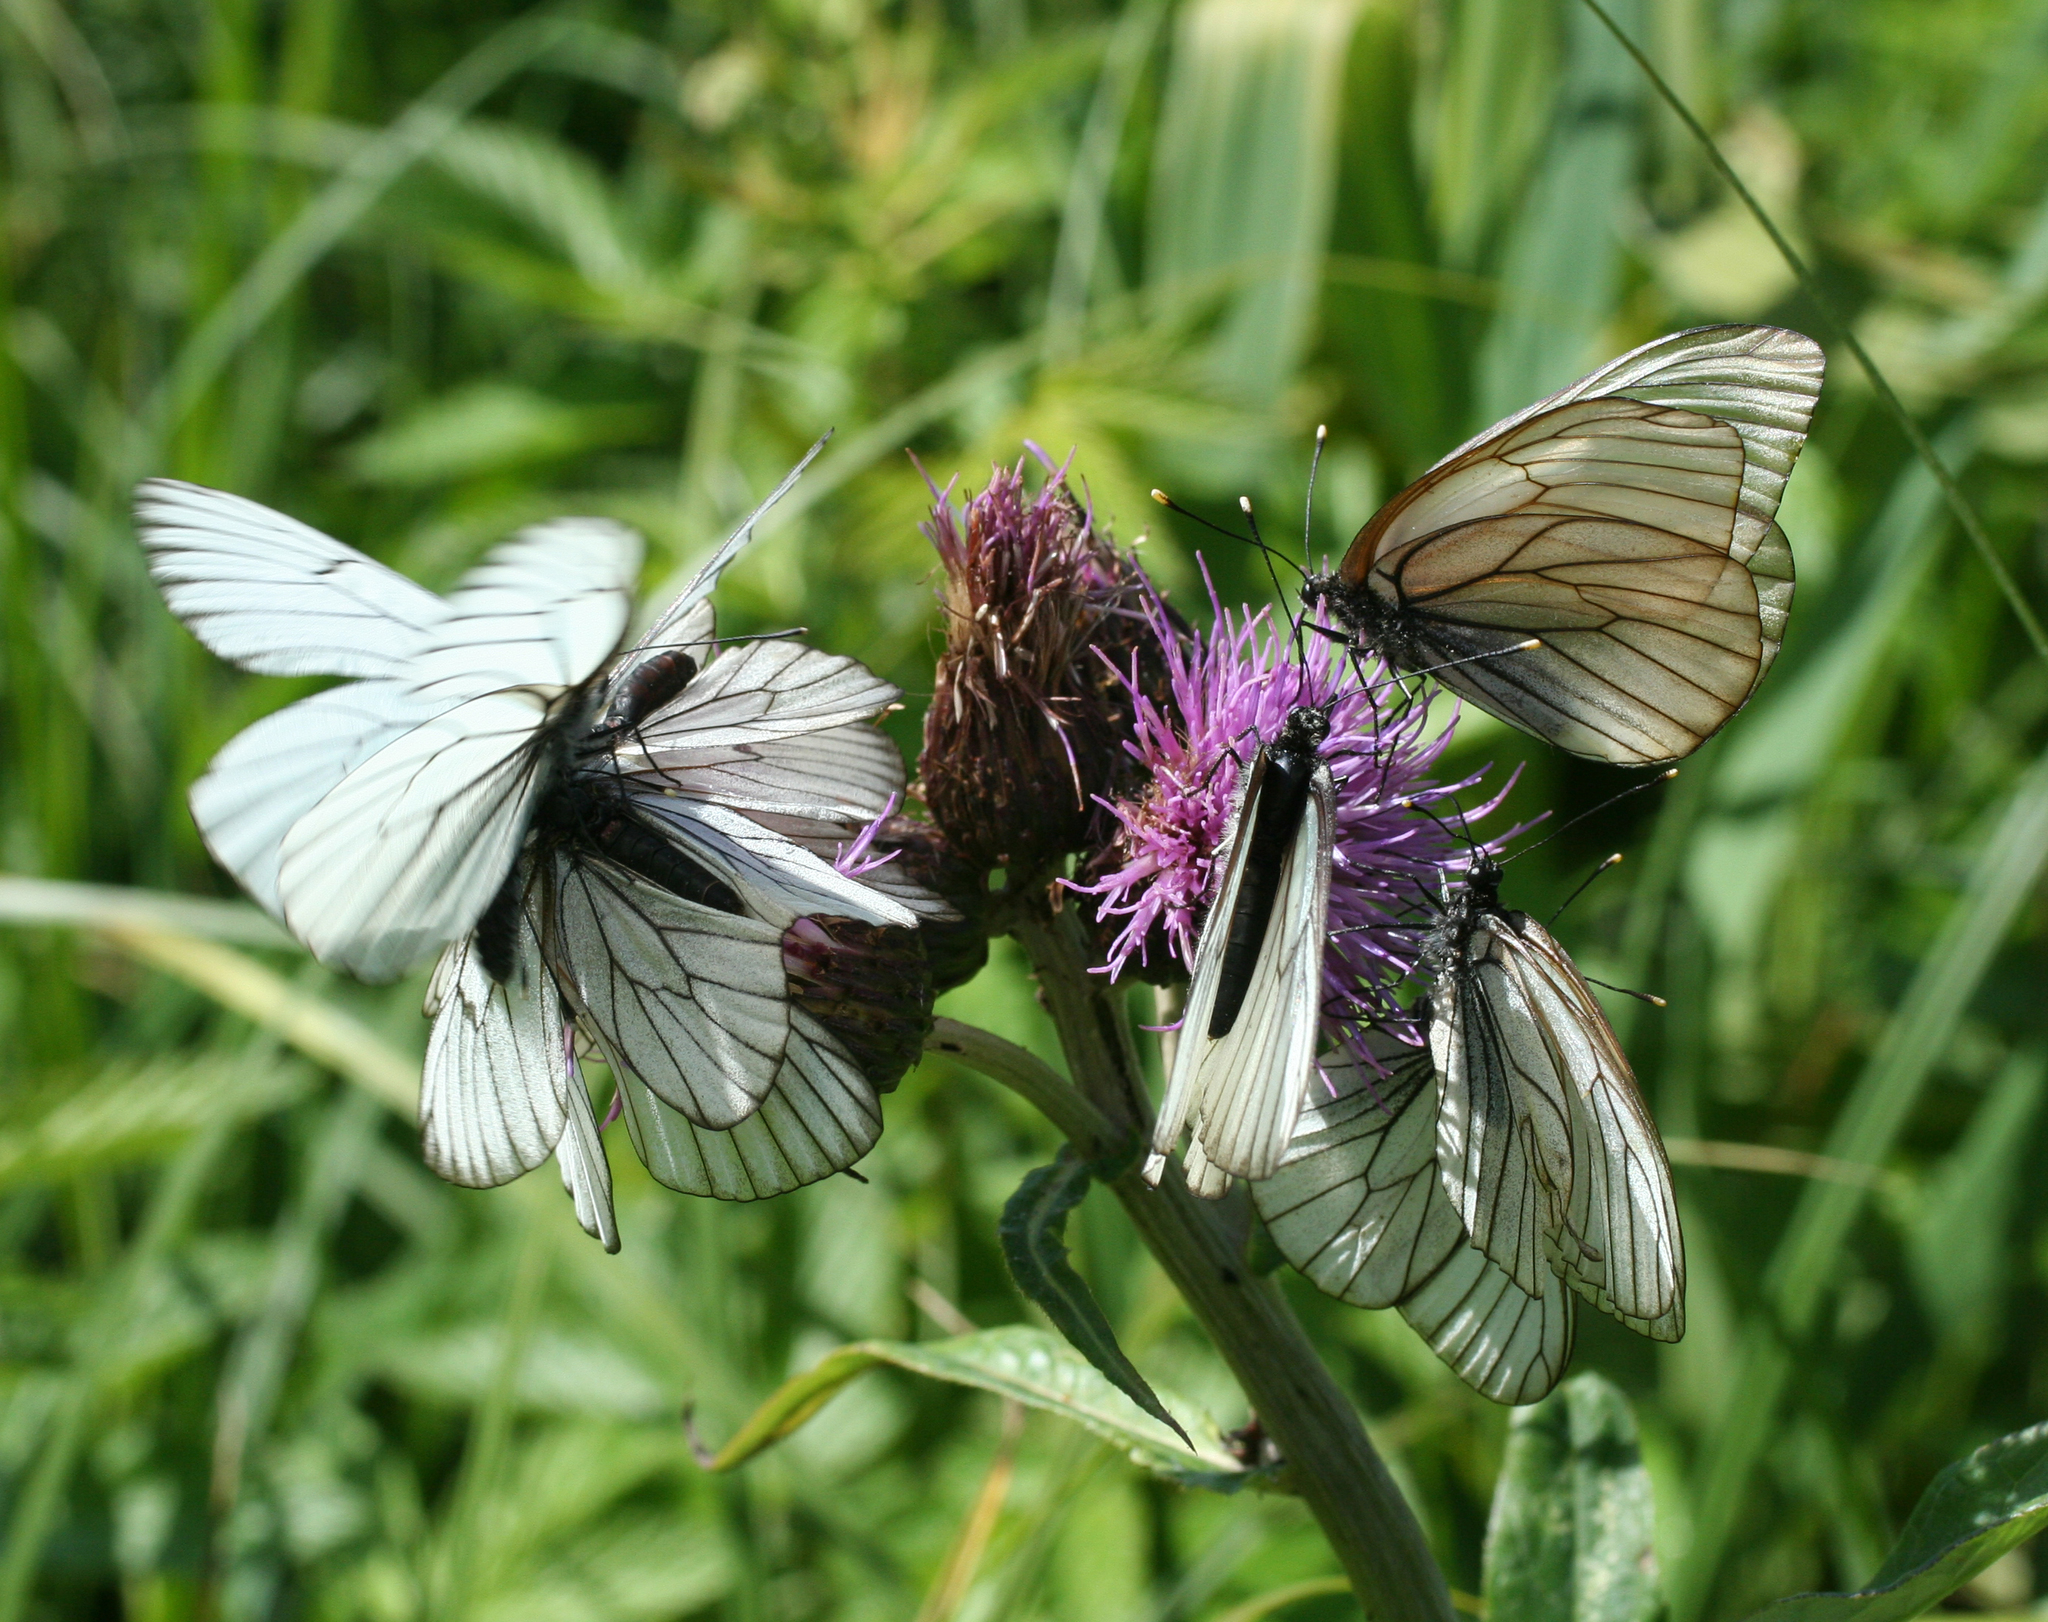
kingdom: Animalia
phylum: Arthropoda
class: Insecta
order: Lepidoptera
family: Pieridae
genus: Aporia
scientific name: Aporia crataegi
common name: Black-veined white
